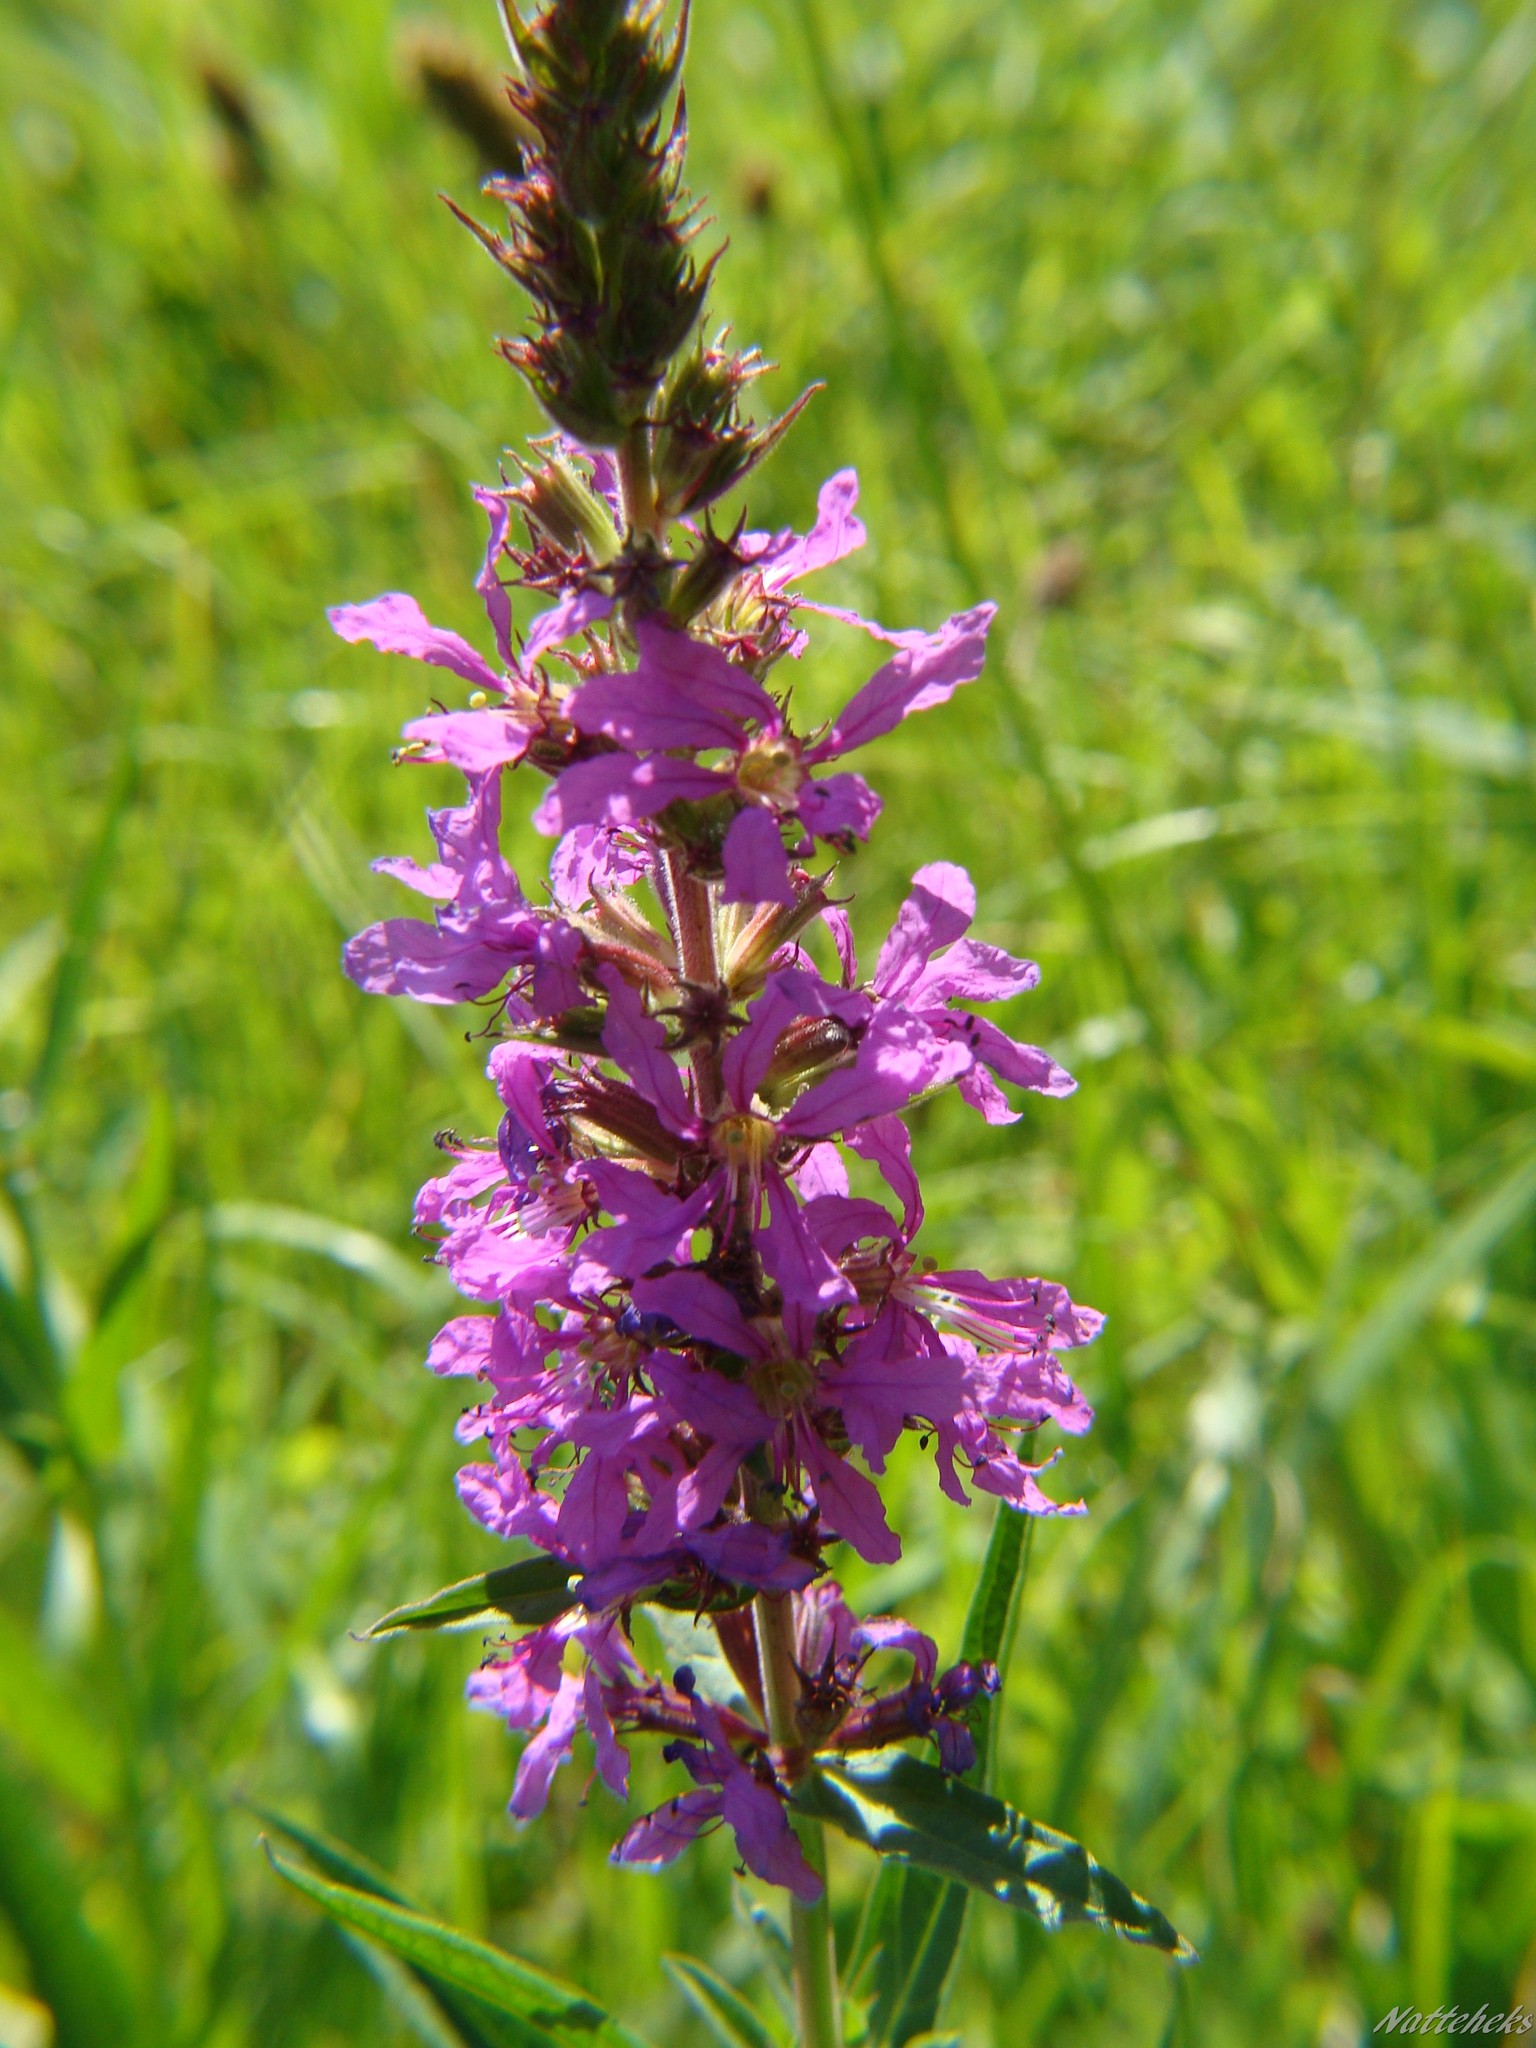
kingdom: Plantae
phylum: Tracheophyta
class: Magnoliopsida
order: Myrtales
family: Lythraceae
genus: Lythrum
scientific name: Lythrum salicaria
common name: Purple loosestrife
